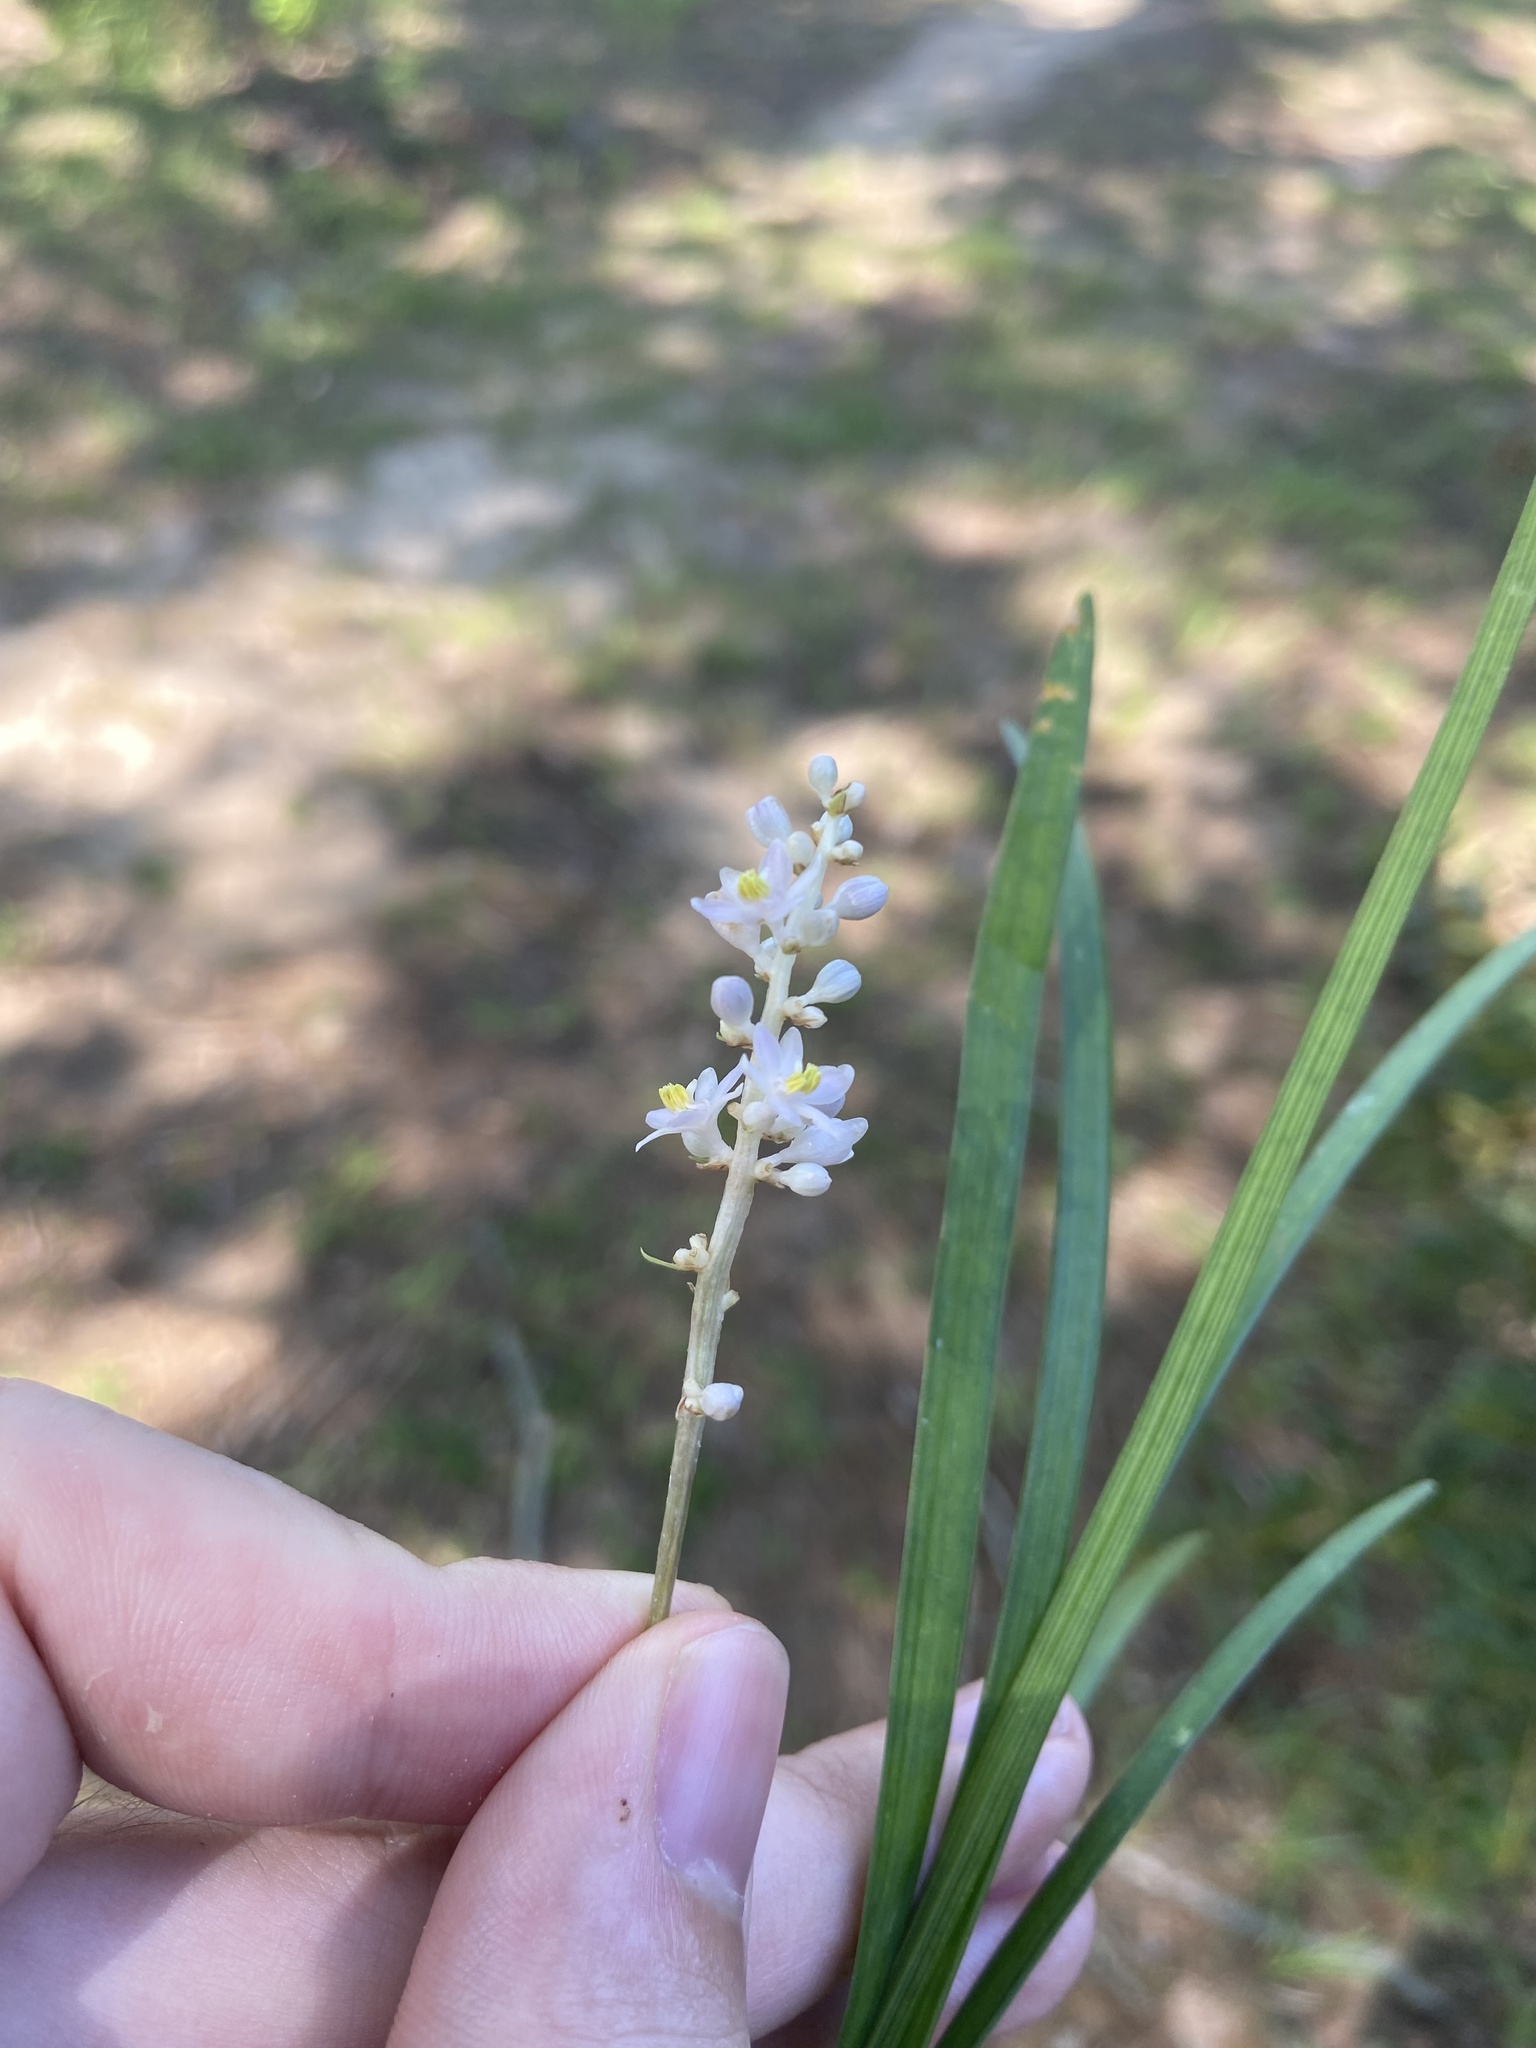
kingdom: Plantae
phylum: Tracheophyta
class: Liliopsida
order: Asparagales
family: Asparagaceae
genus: Liriope
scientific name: Liriope muscari
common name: Big blue lilyturf
